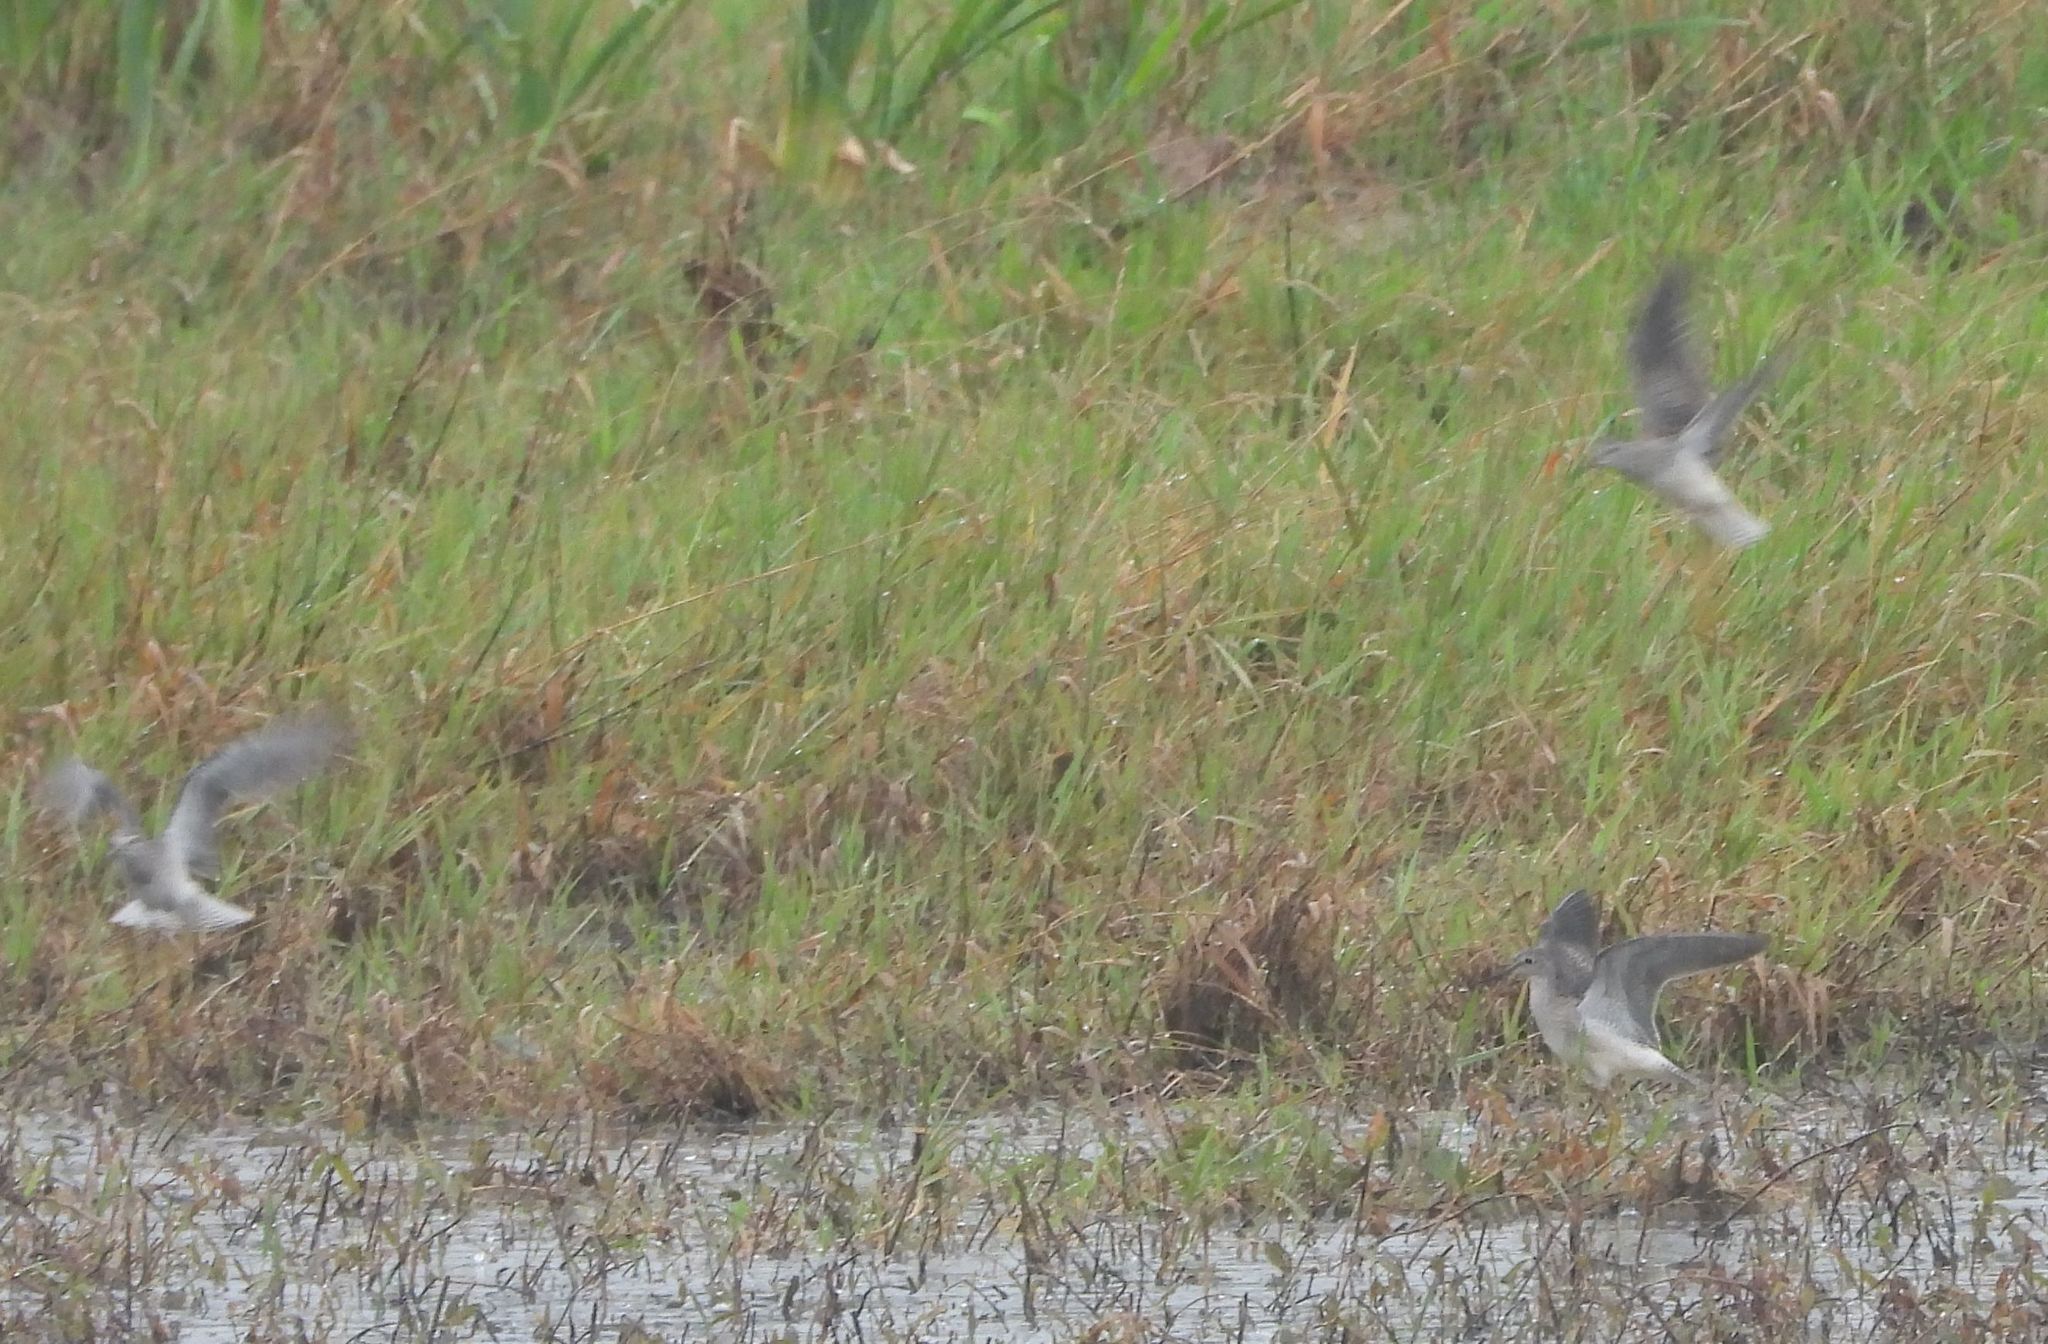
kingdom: Animalia
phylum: Chordata
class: Aves
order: Charadriiformes
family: Scolopacidae
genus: Tringa
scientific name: Tringa flavipes
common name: Lesser yellowlegs
